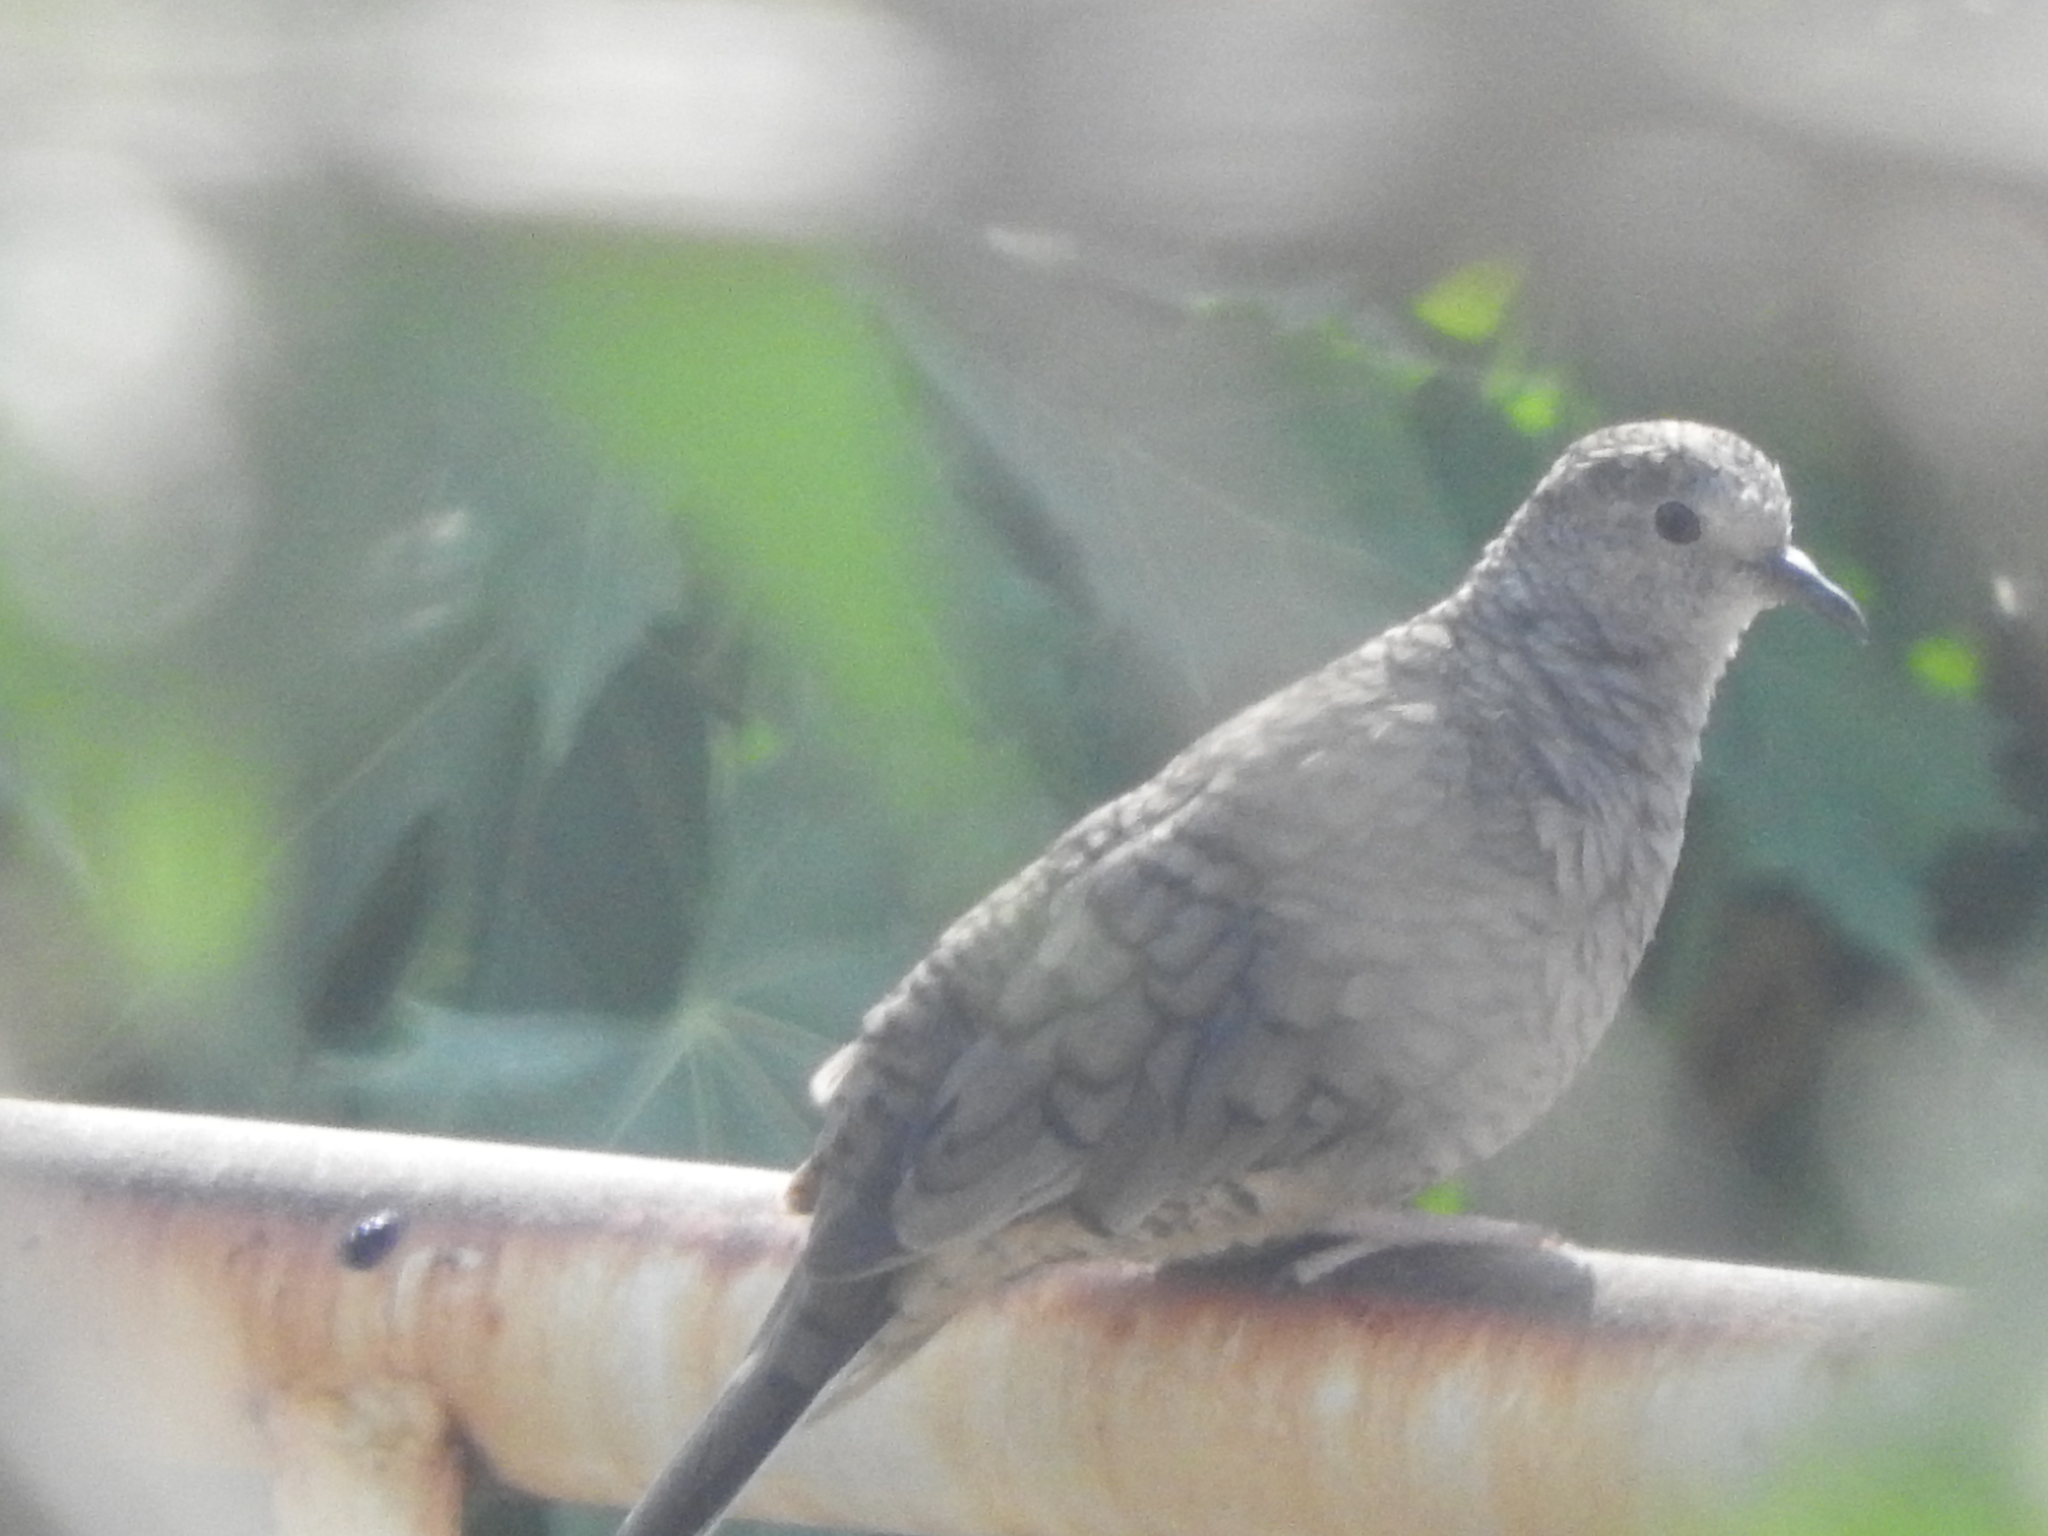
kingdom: Animalia
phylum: Chordata
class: Aves
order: Columbiformes
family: Columbidae
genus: Columbina
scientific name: Columbina inca
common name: Inca dove
